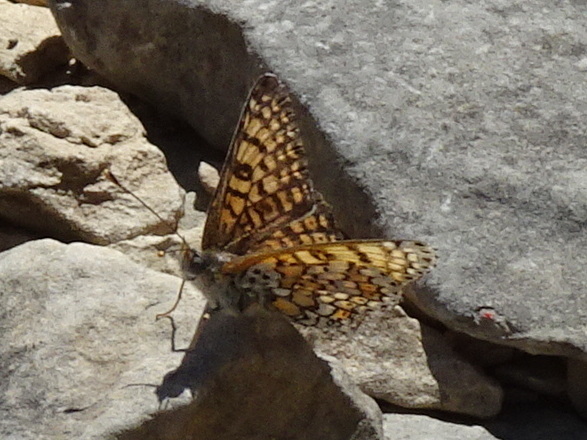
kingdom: Animalia
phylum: Arthropoda
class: Insecta
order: Lepidoptera
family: Nymphalidae
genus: Melitaea
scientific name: Melitaea cinxia
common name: Glanville fritillary
